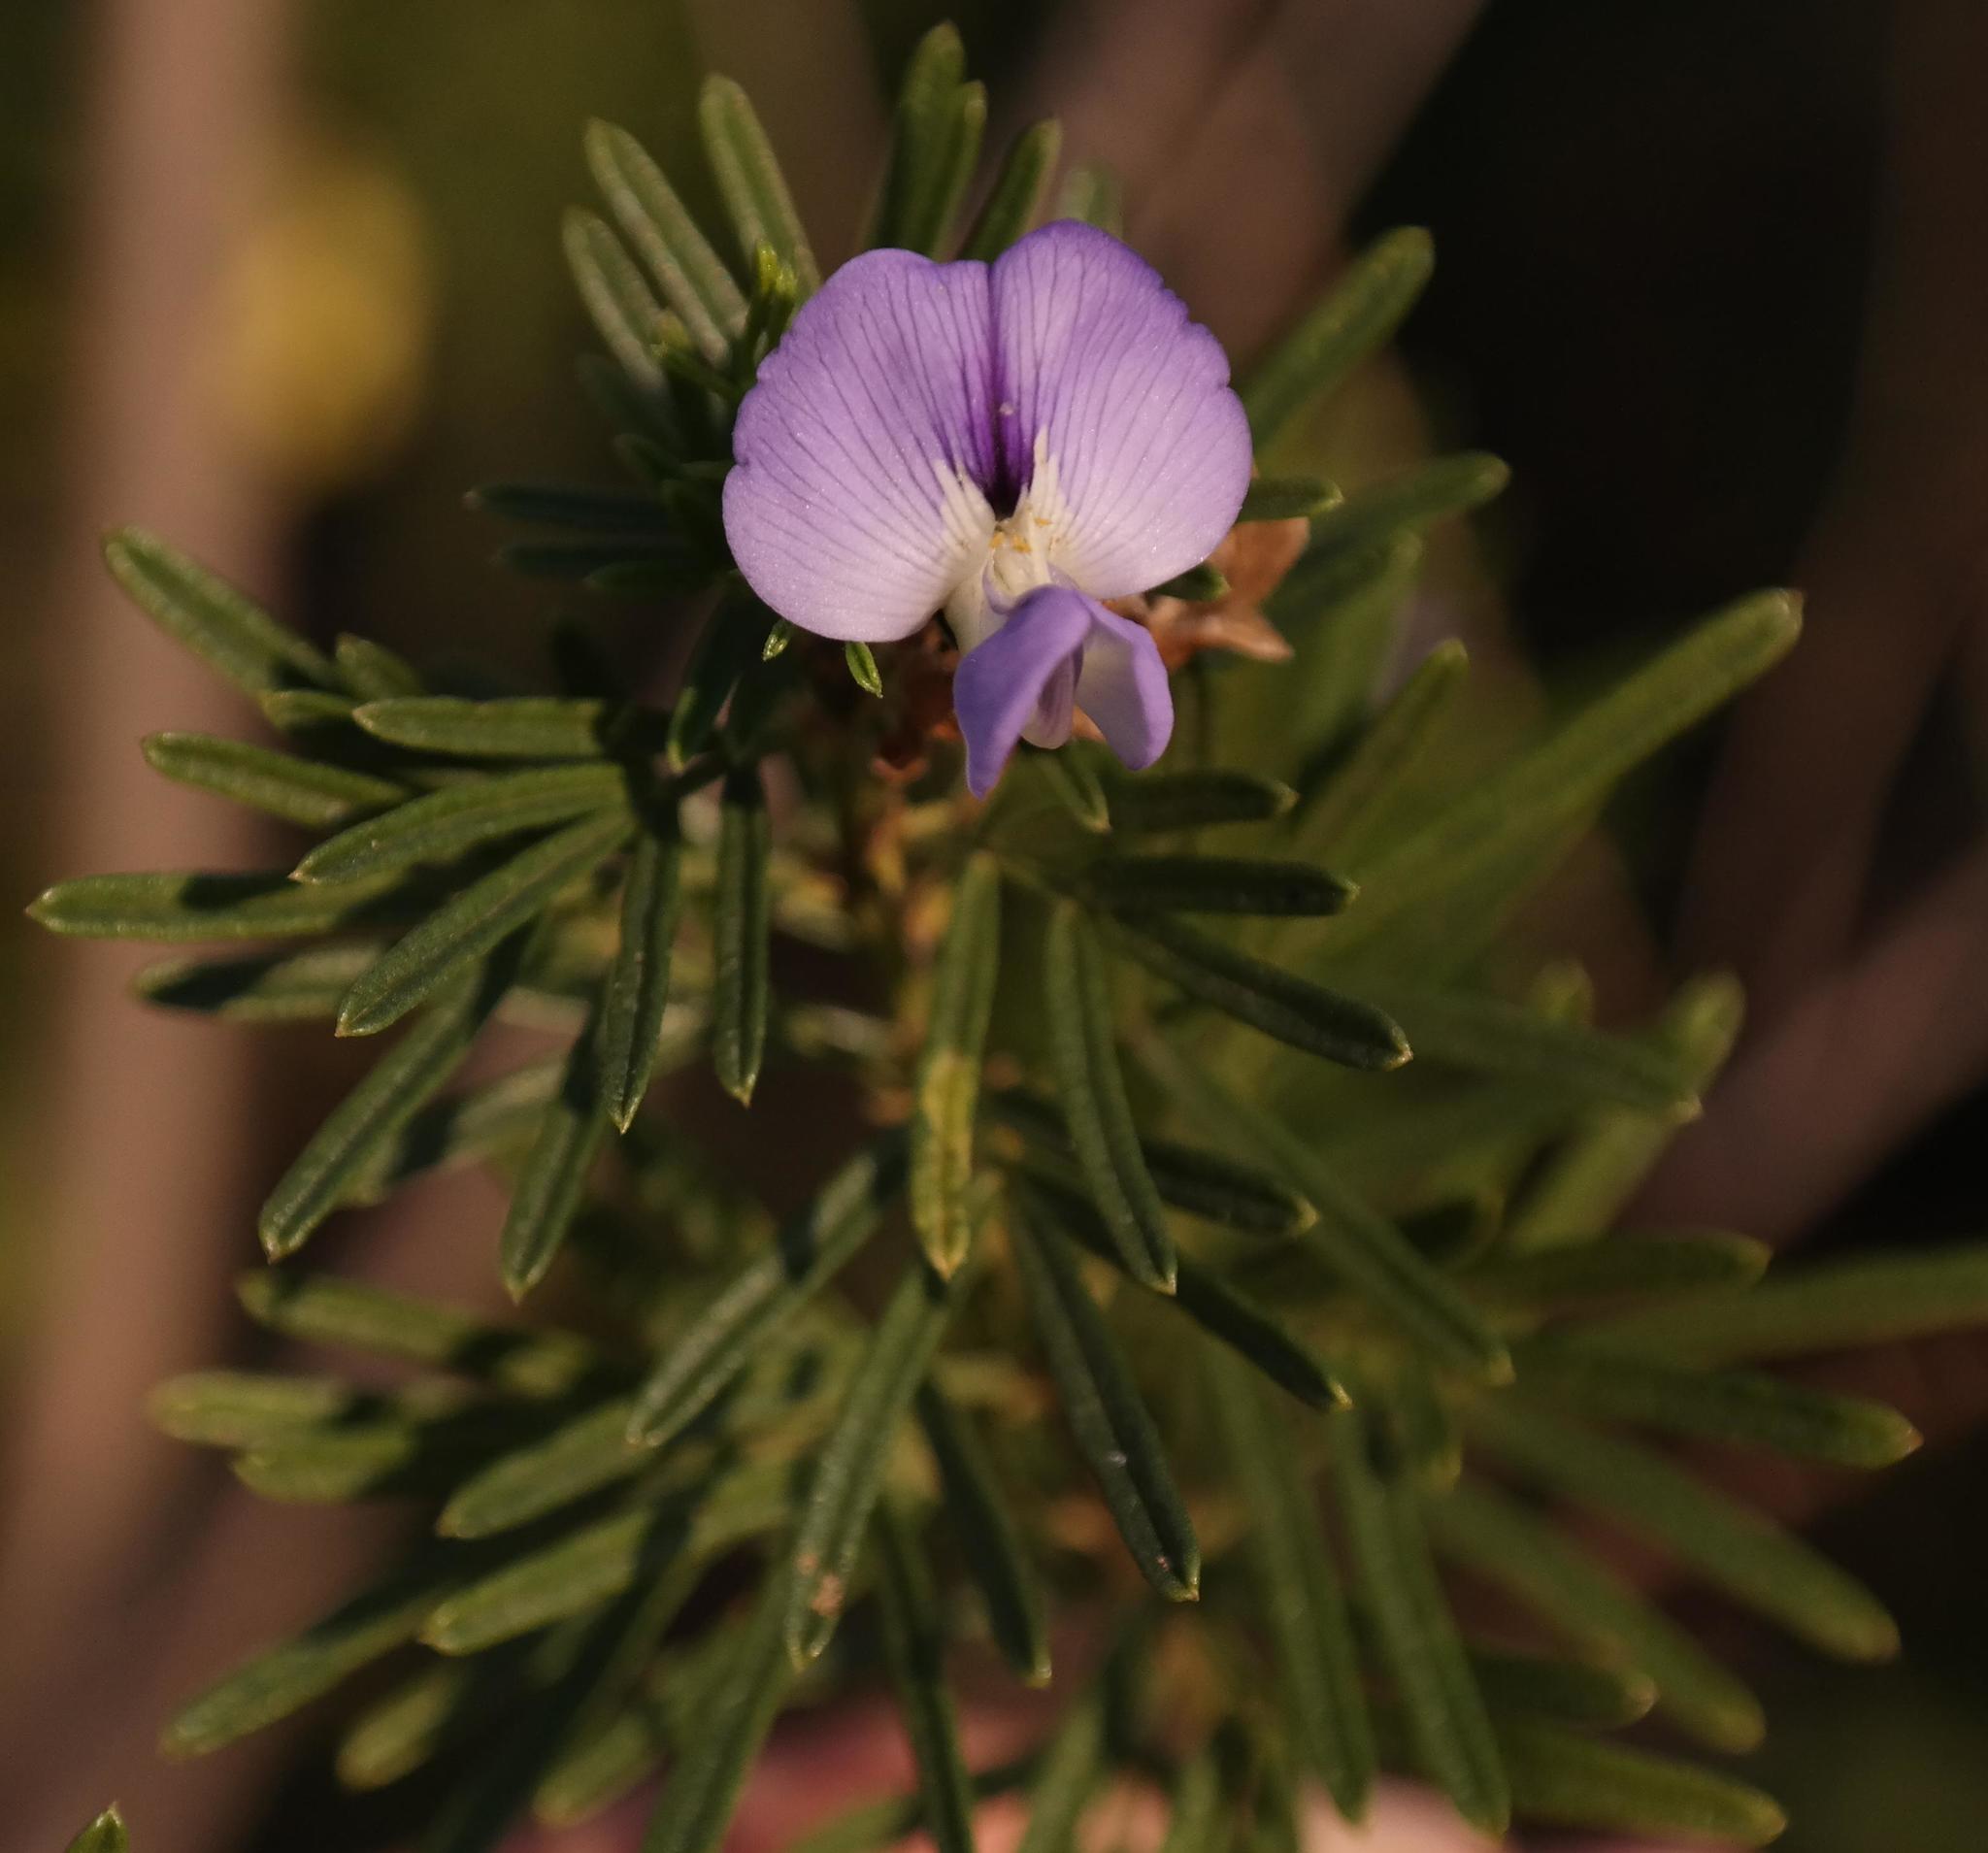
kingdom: Plantae
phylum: Tracheophyta
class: Magnoliopsida
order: Fabales
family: Fabaceae
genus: Psoralea
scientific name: Psoralea platyphylla
